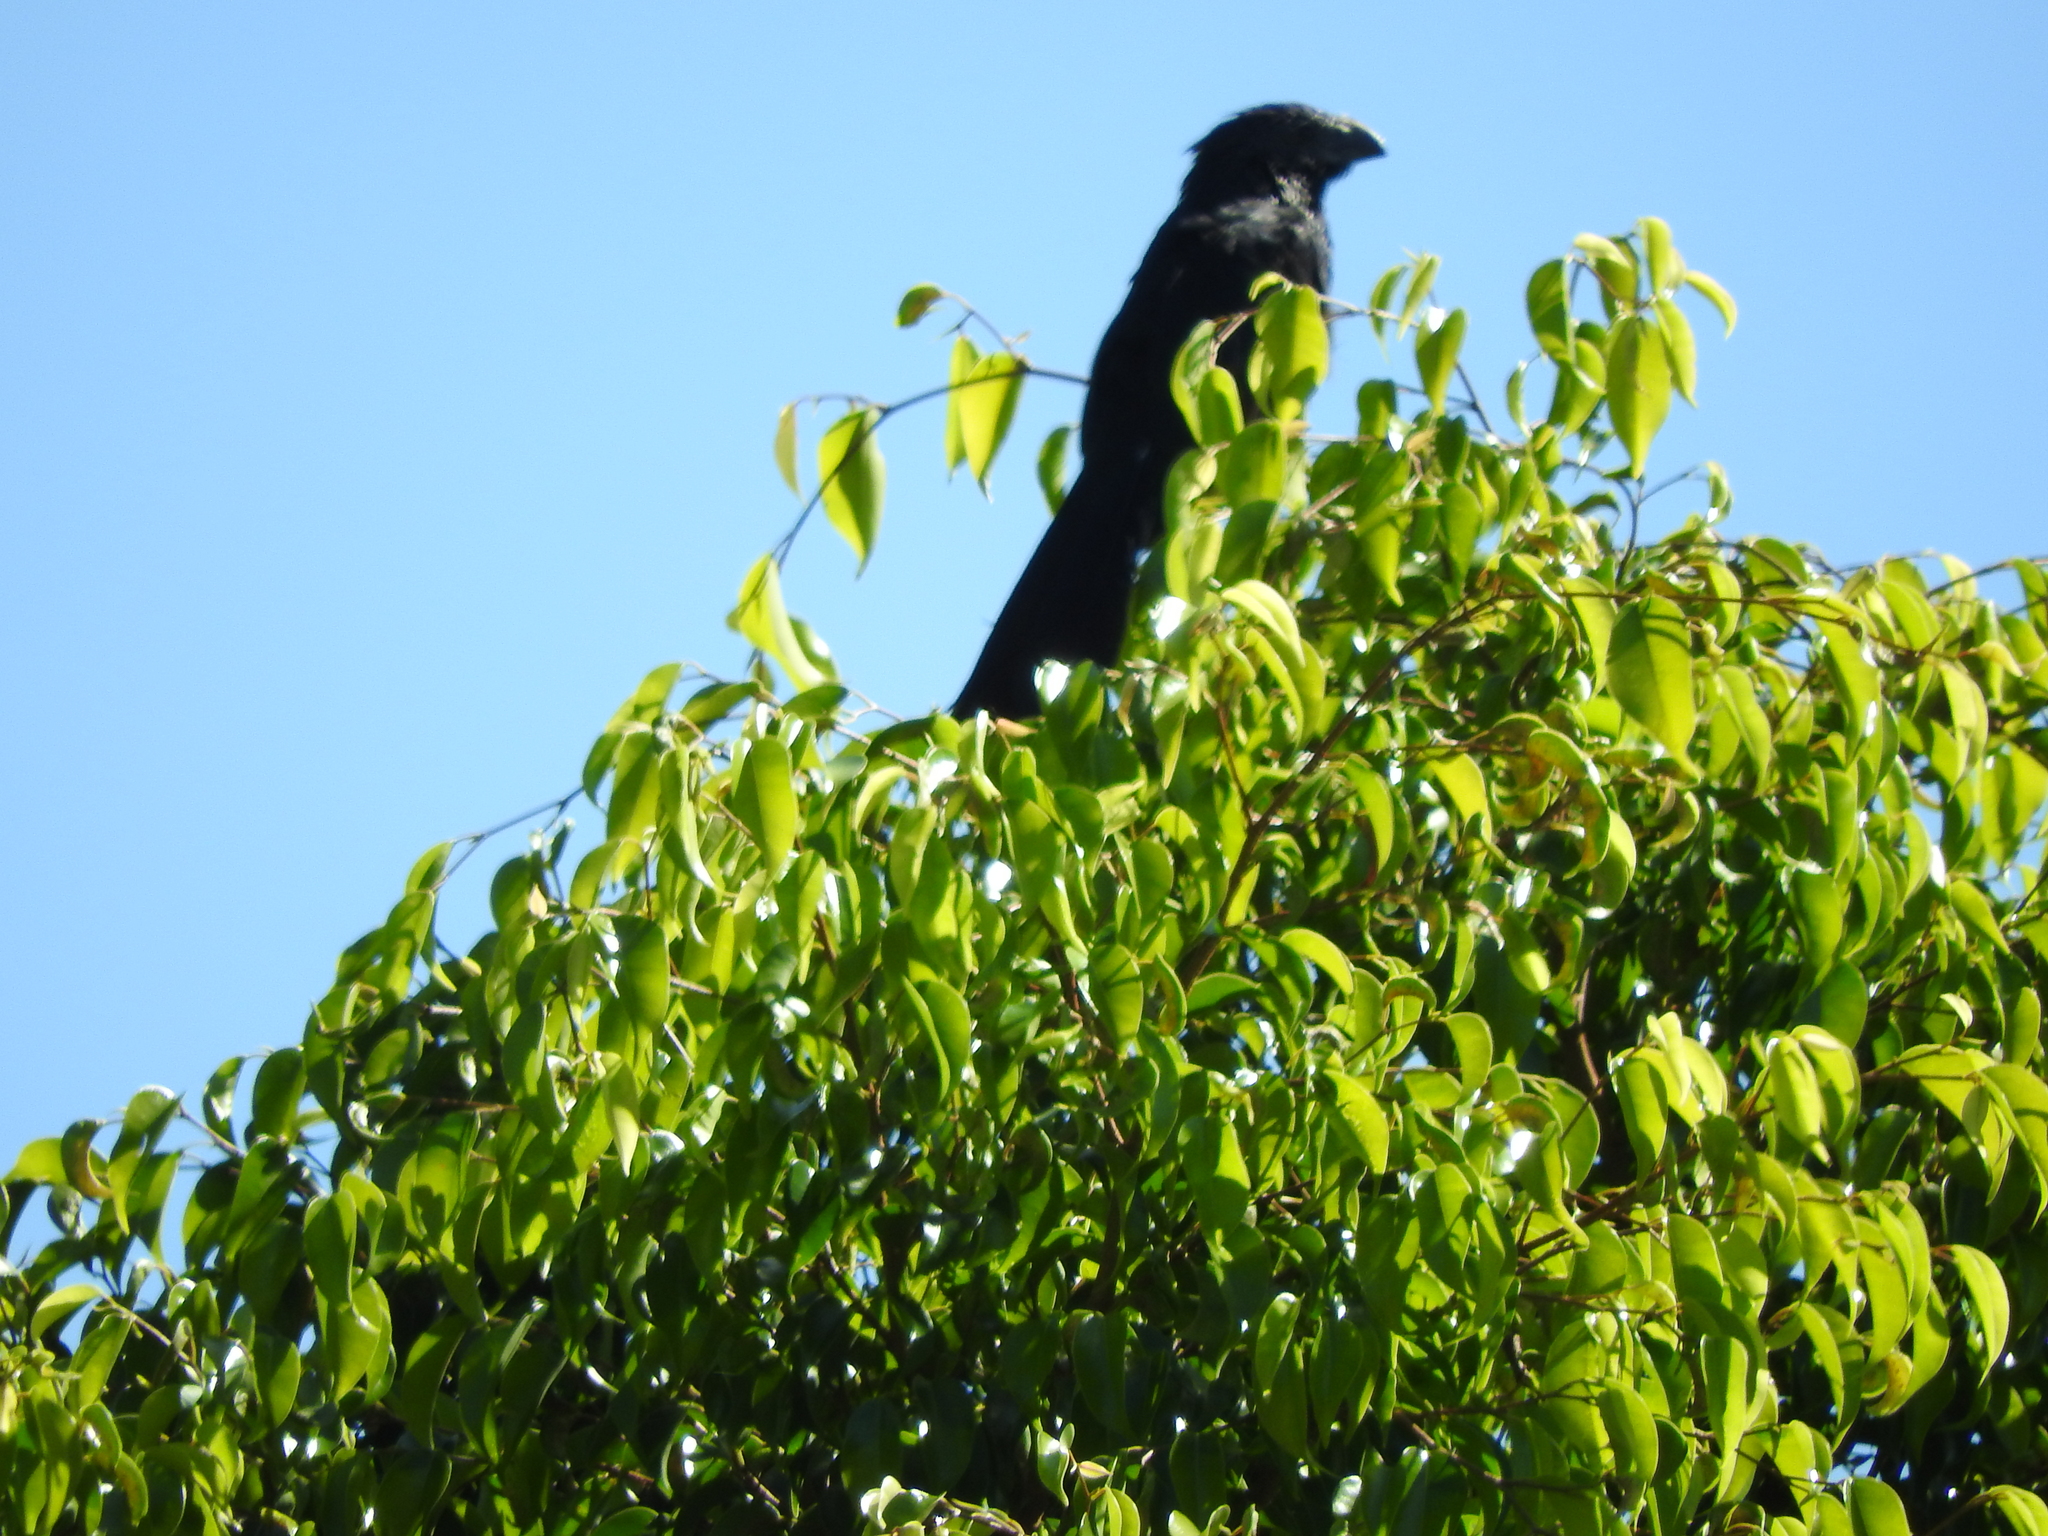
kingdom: Animalia
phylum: Chordata
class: Aves
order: Cuculiformes
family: Cuculidae
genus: Crotophaga
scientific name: Crotophaga sulcirostris
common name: Groove-billed ani
